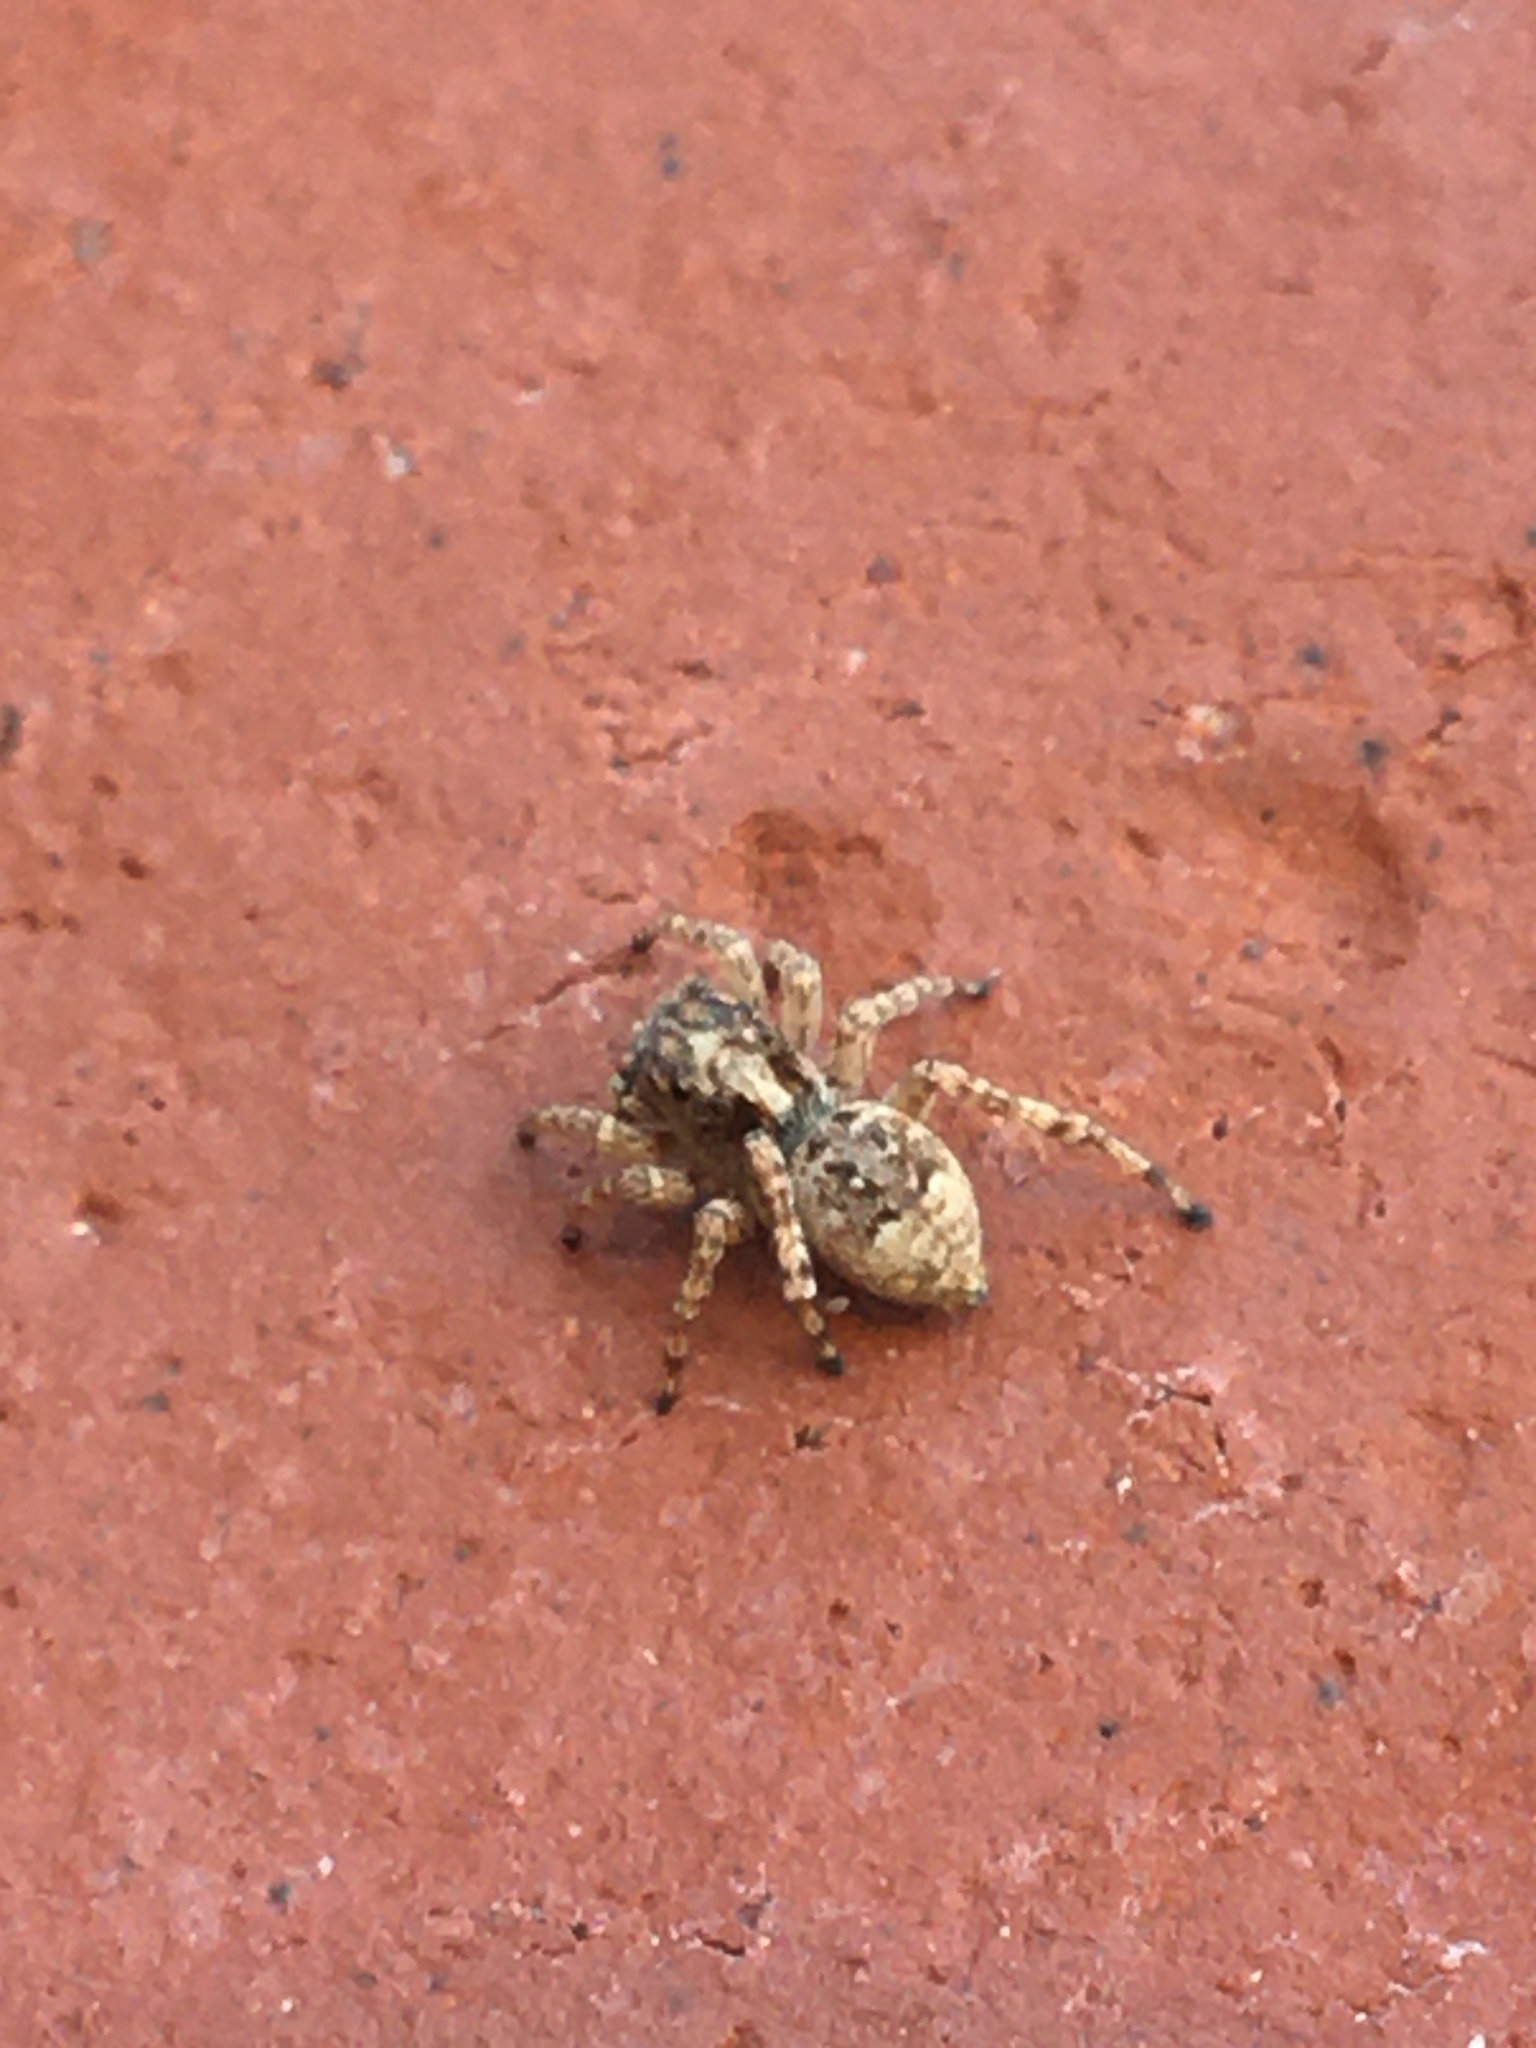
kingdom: Animalia
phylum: Arthropoda
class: Arachnida
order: Araneae
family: Salticidae
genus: Attulus
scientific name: Attulus fasciger
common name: Asiatic wall jumping spider
